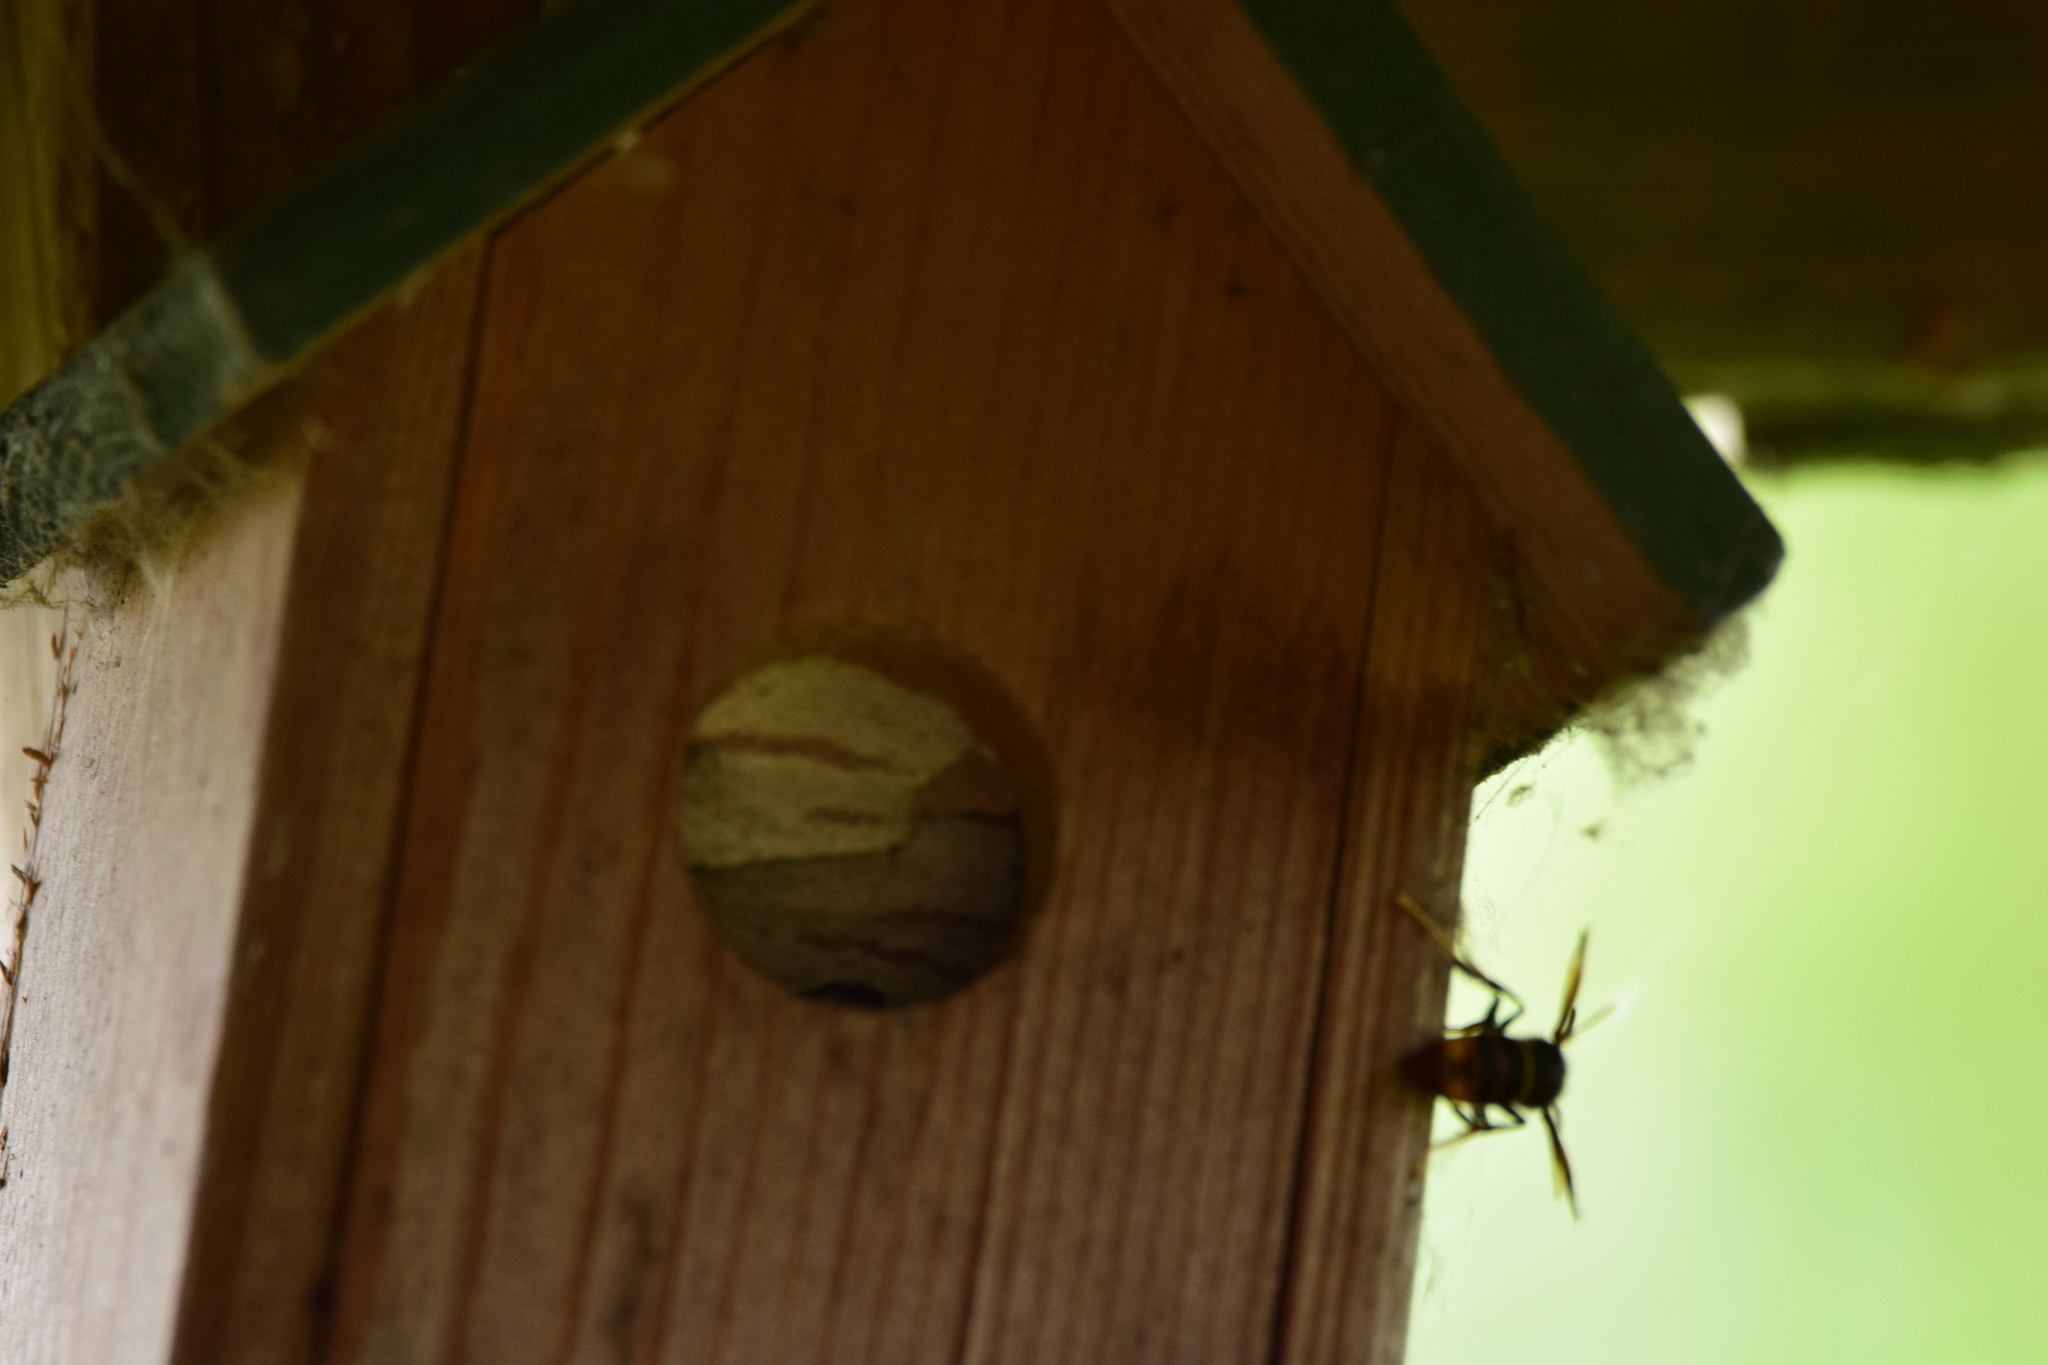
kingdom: Animalia
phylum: Arthropoda
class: Insecta
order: Hymenoptera
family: Vespidae
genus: Vespa
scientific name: Vespa velutina
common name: Asian hornet
